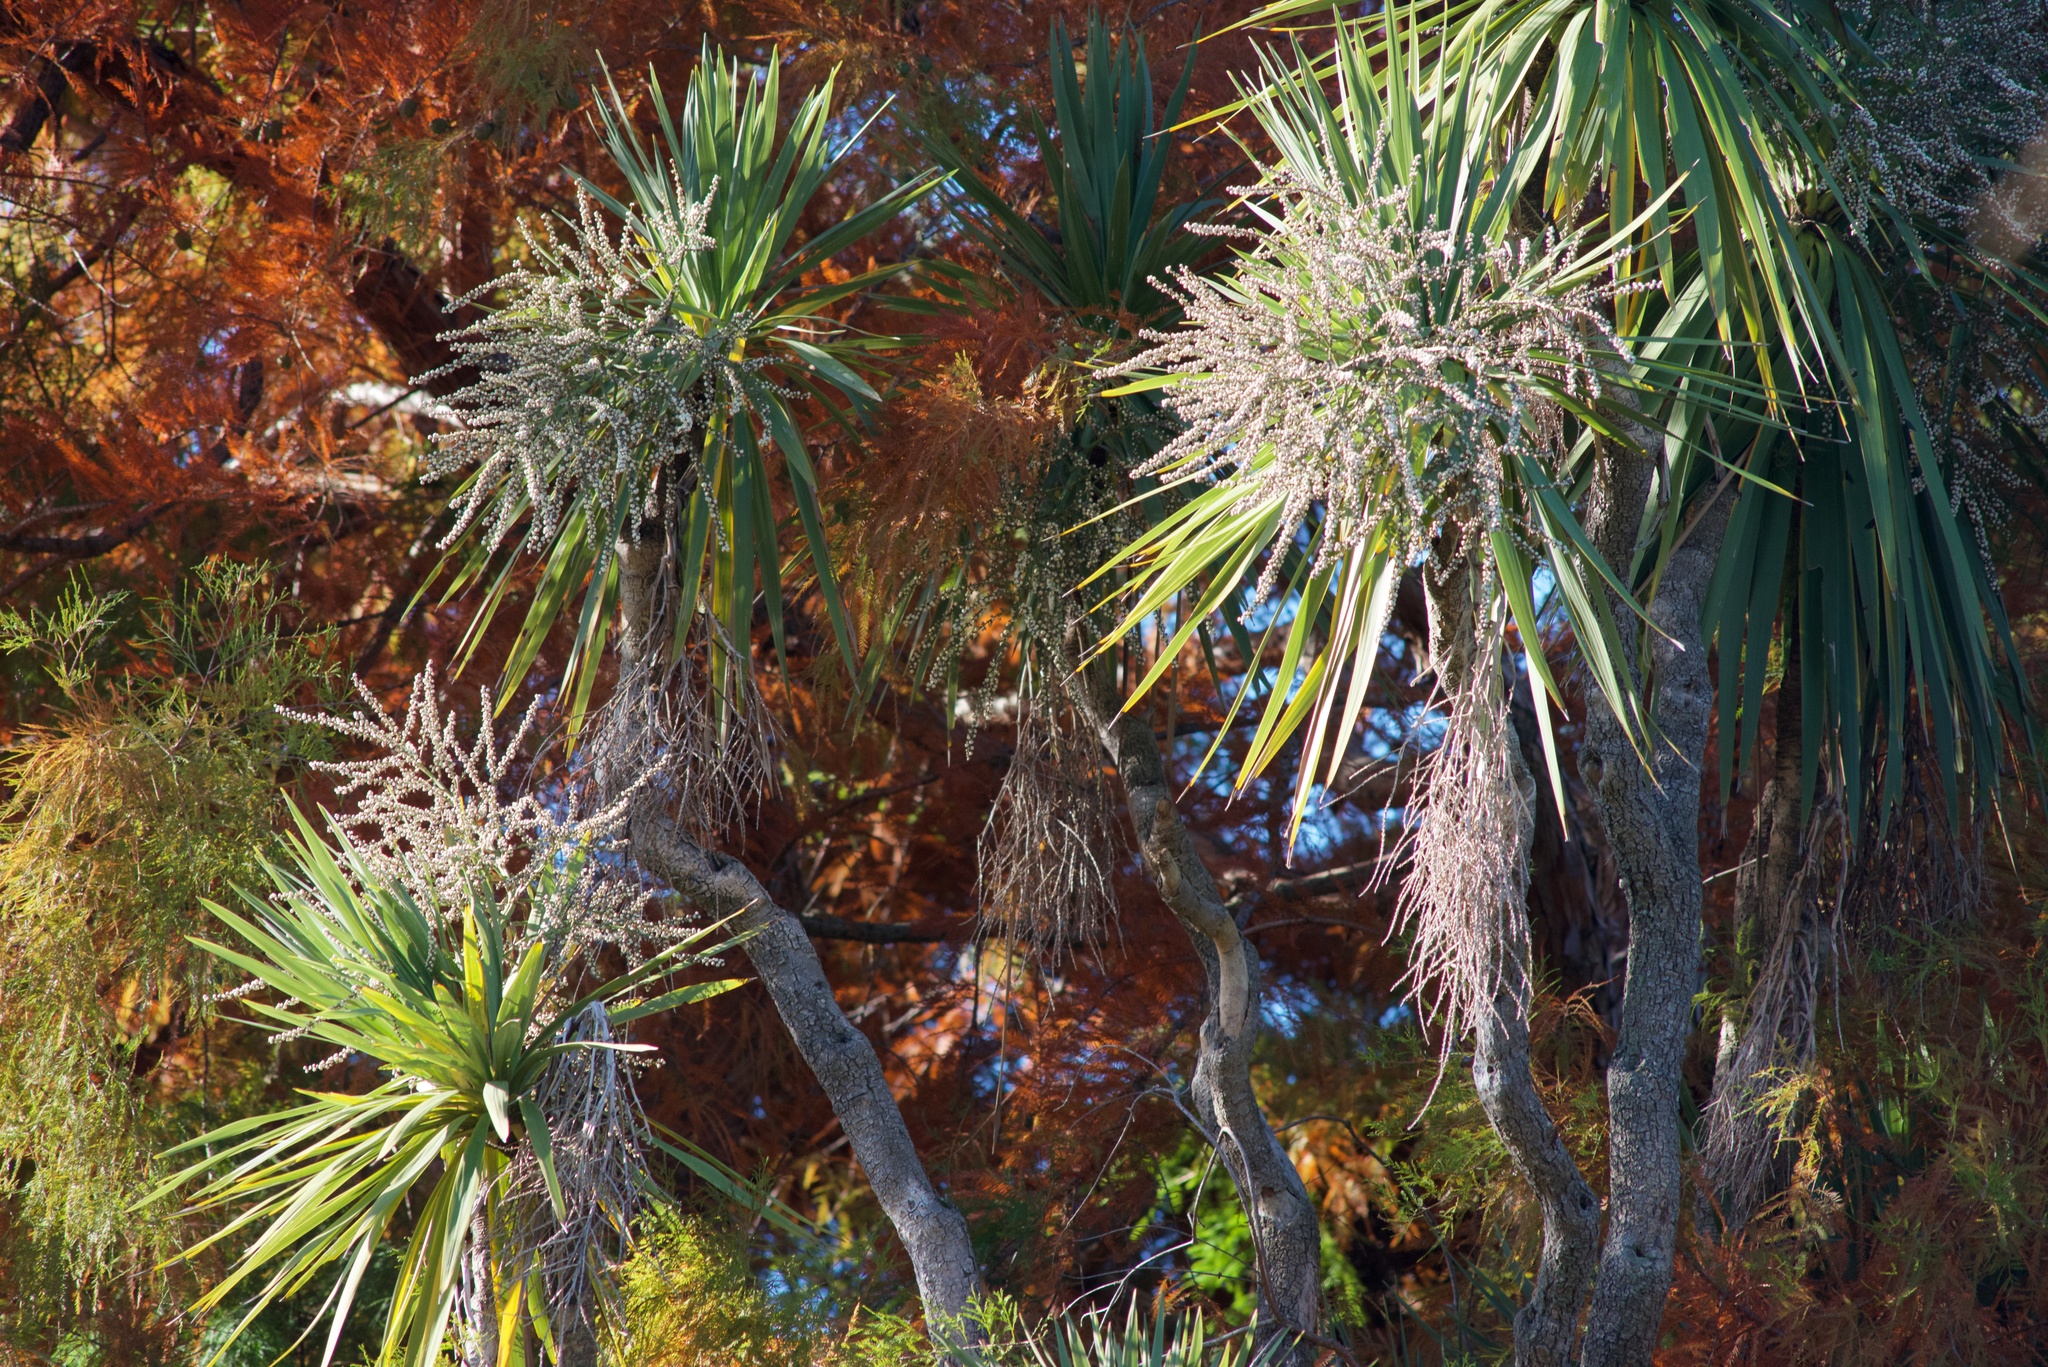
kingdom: Plantae
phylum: Tracheophyta
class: Liliopsida
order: Asparagales
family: Asparagaceae
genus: Cordyline
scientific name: Cordyline australis
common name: Cabbage-palm
